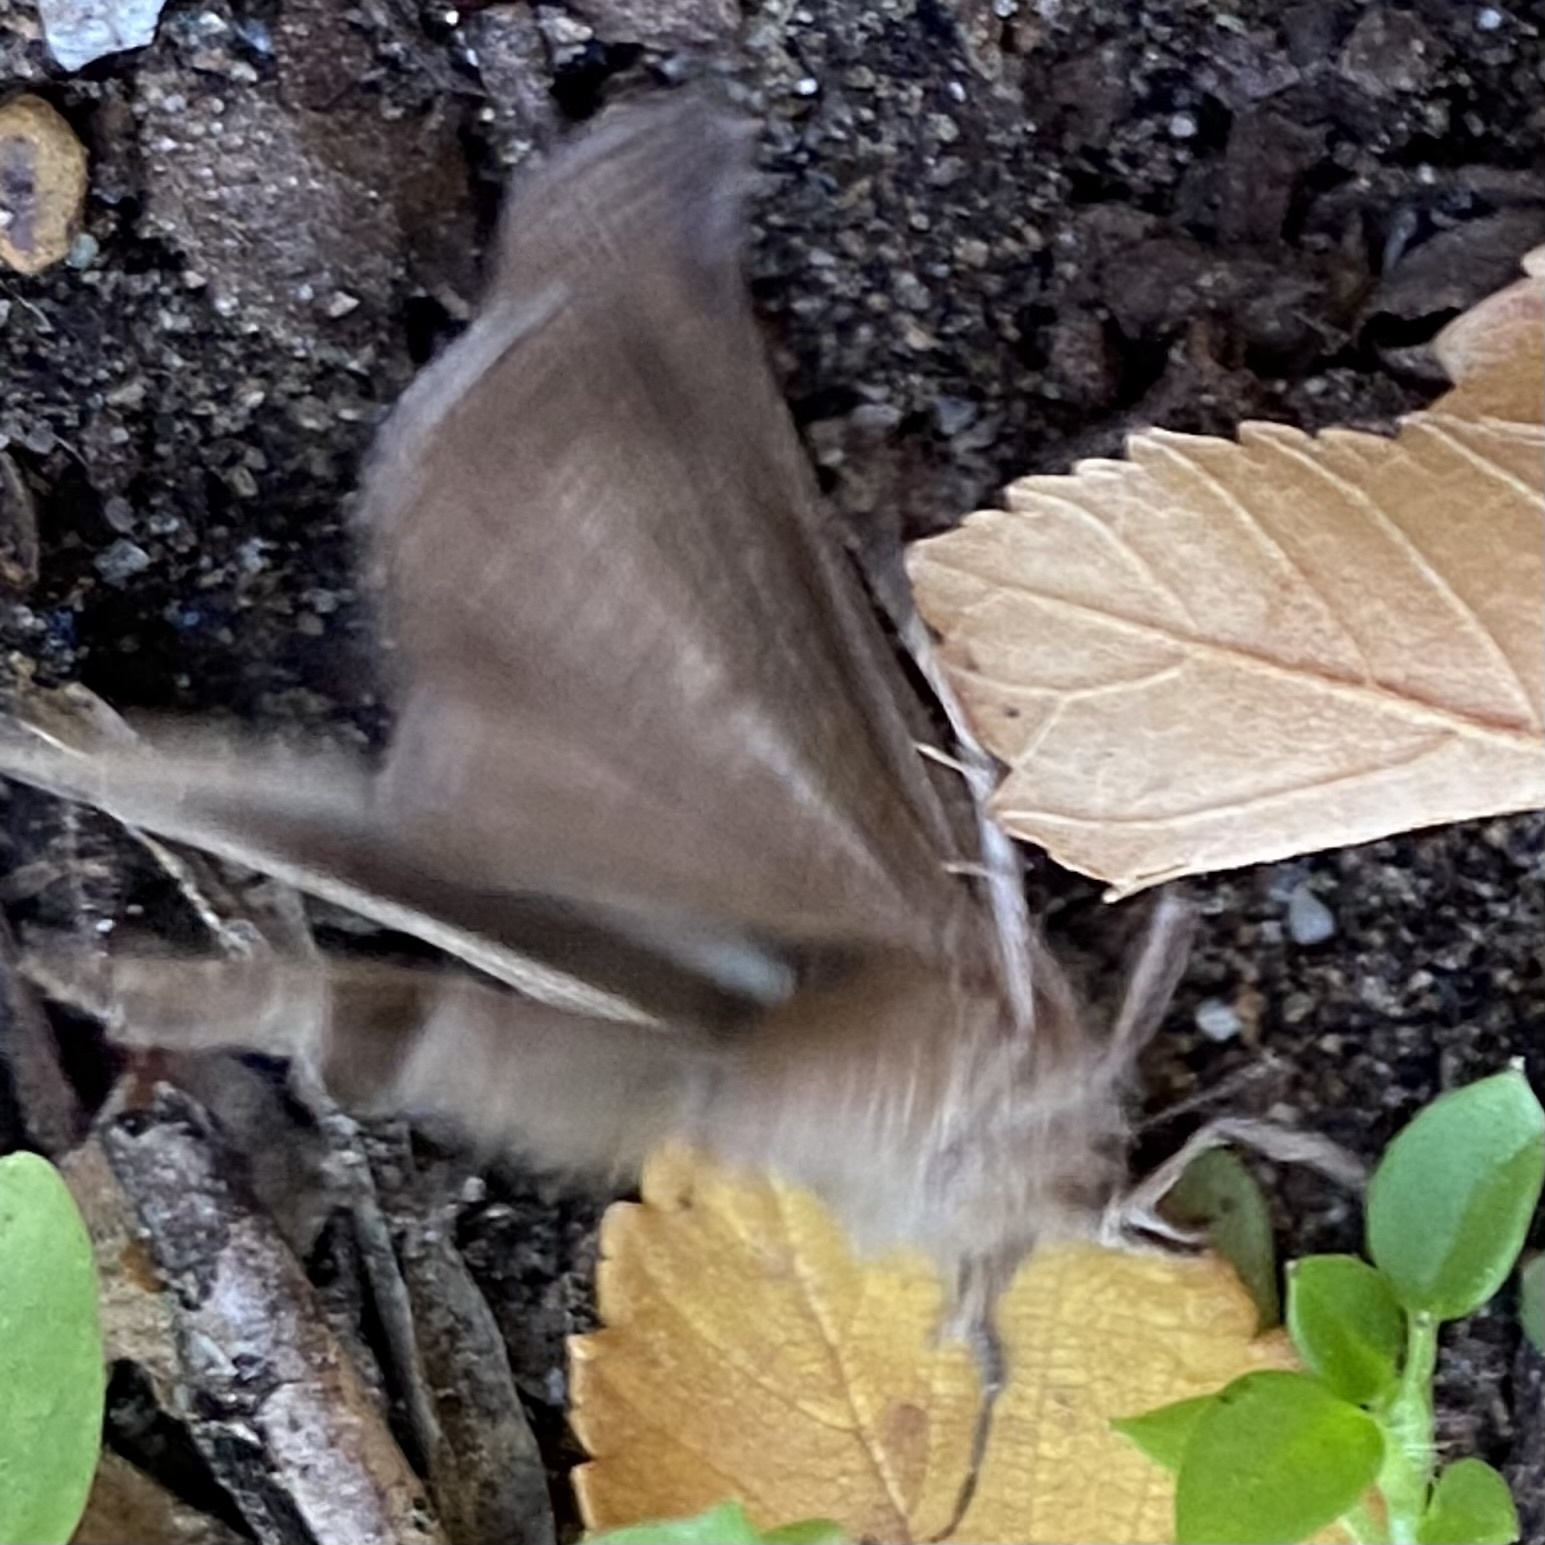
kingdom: Animalia
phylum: Arthropoda
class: Insecta
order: Lepidoptera
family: Erebidae
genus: Hypena
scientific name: Hypena scabra
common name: Green cloverworm
